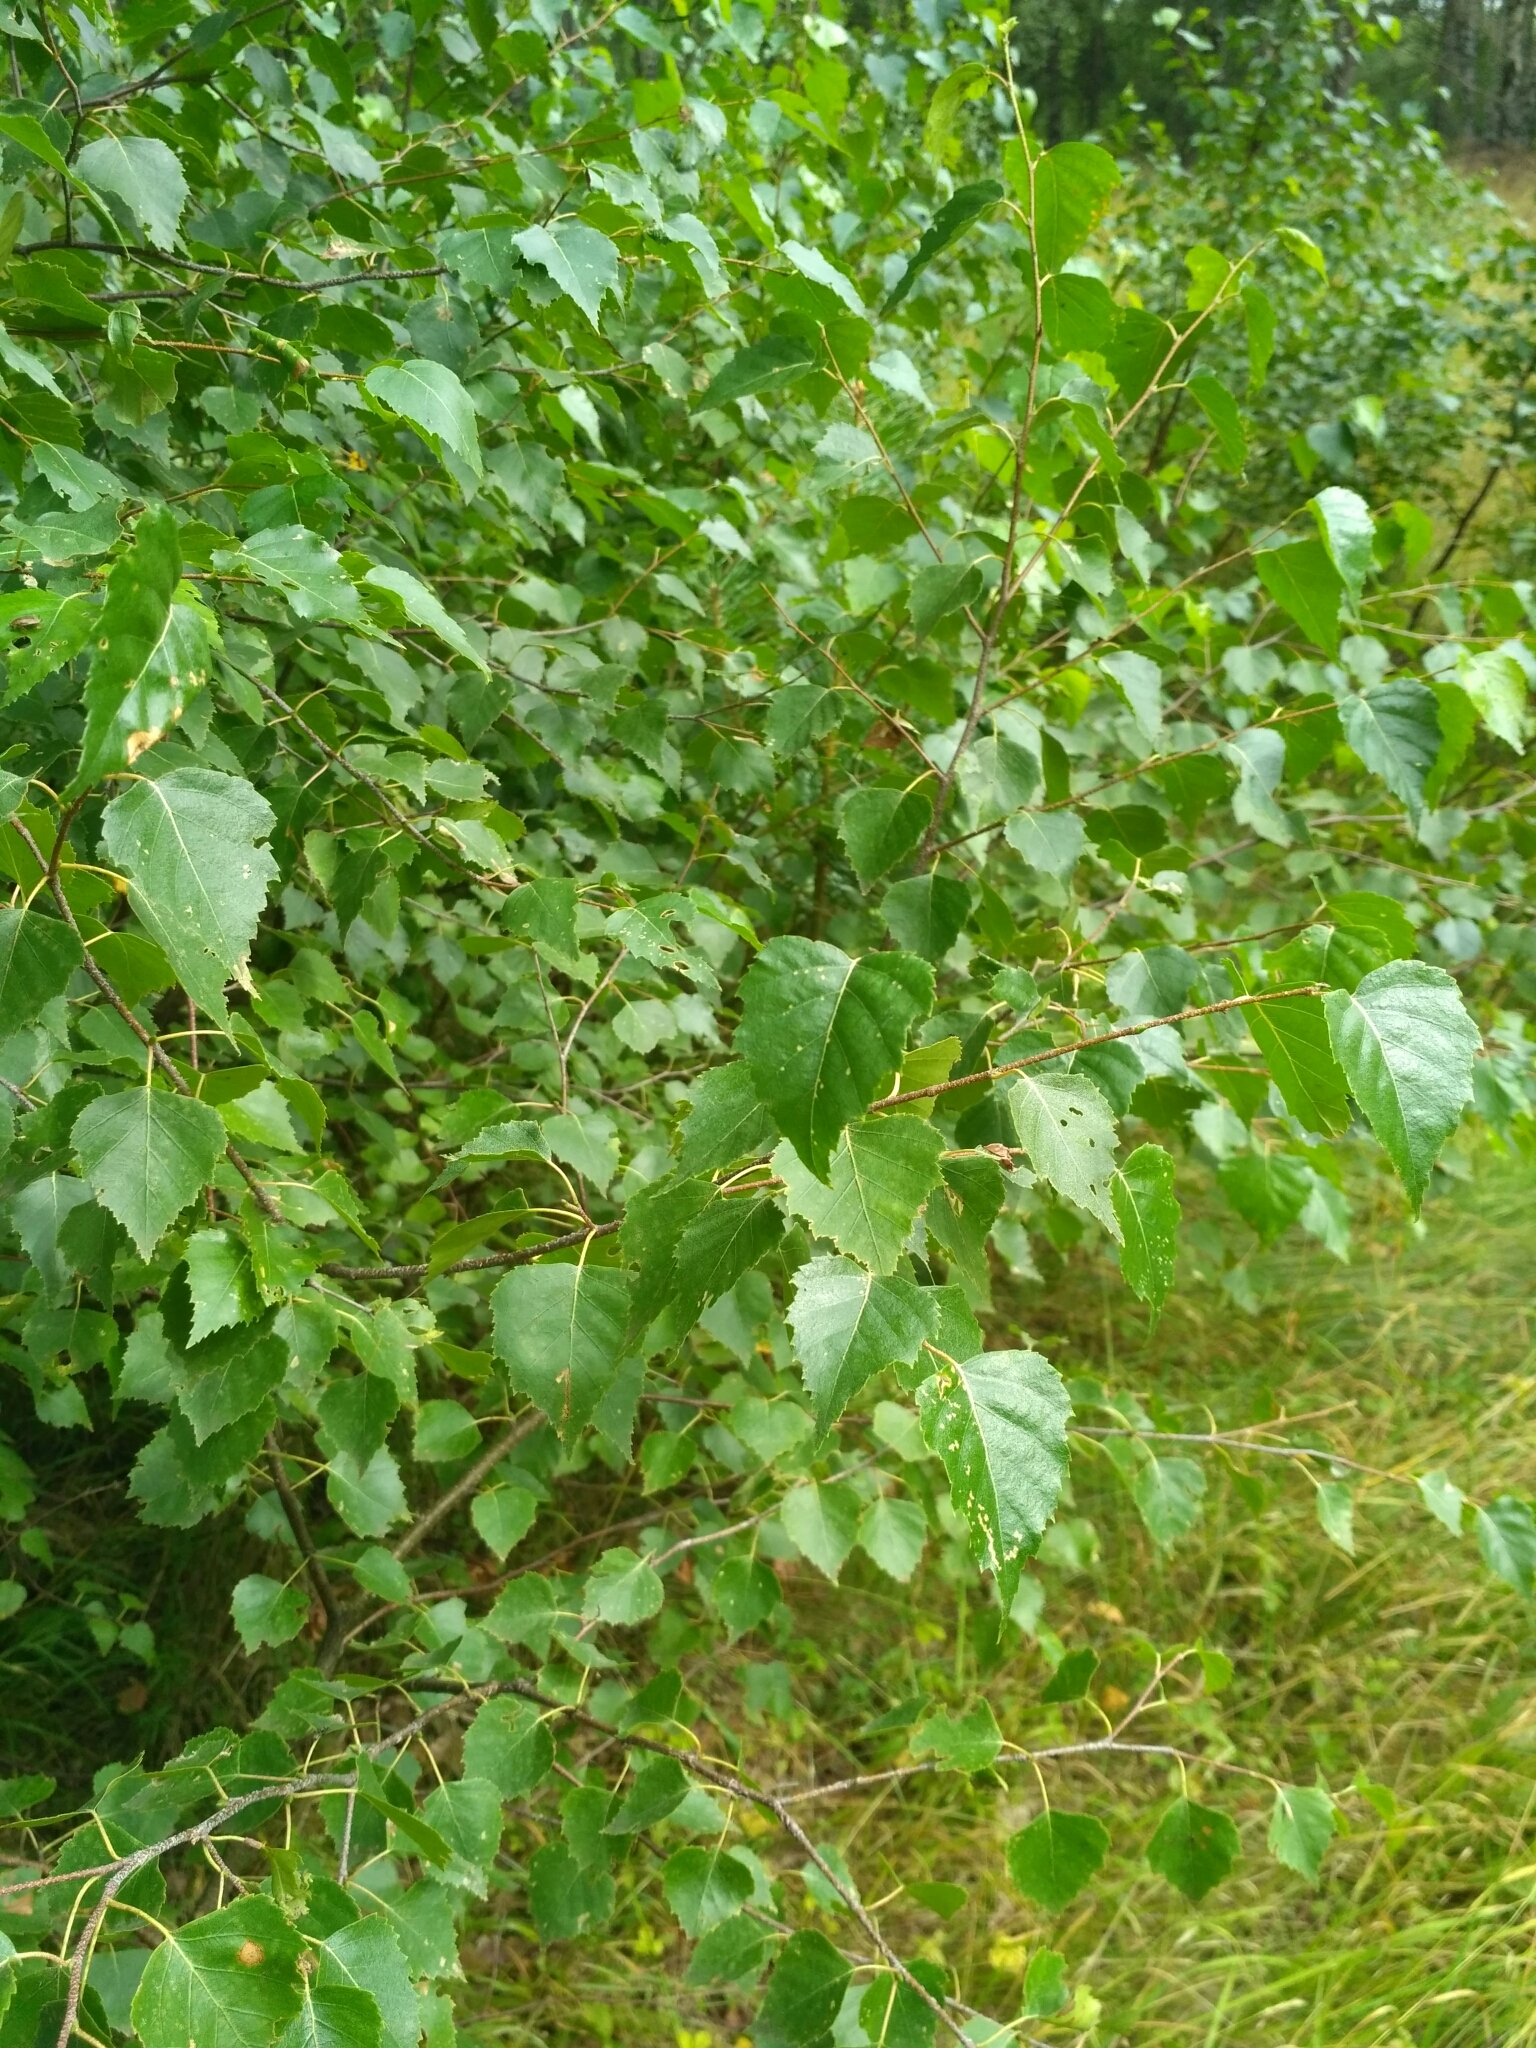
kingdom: Plantae
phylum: Tracheophyta
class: Magnoliopsida
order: Fagales
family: Betulaceae
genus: Betula
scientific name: Betula pendula
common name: Silver birch
